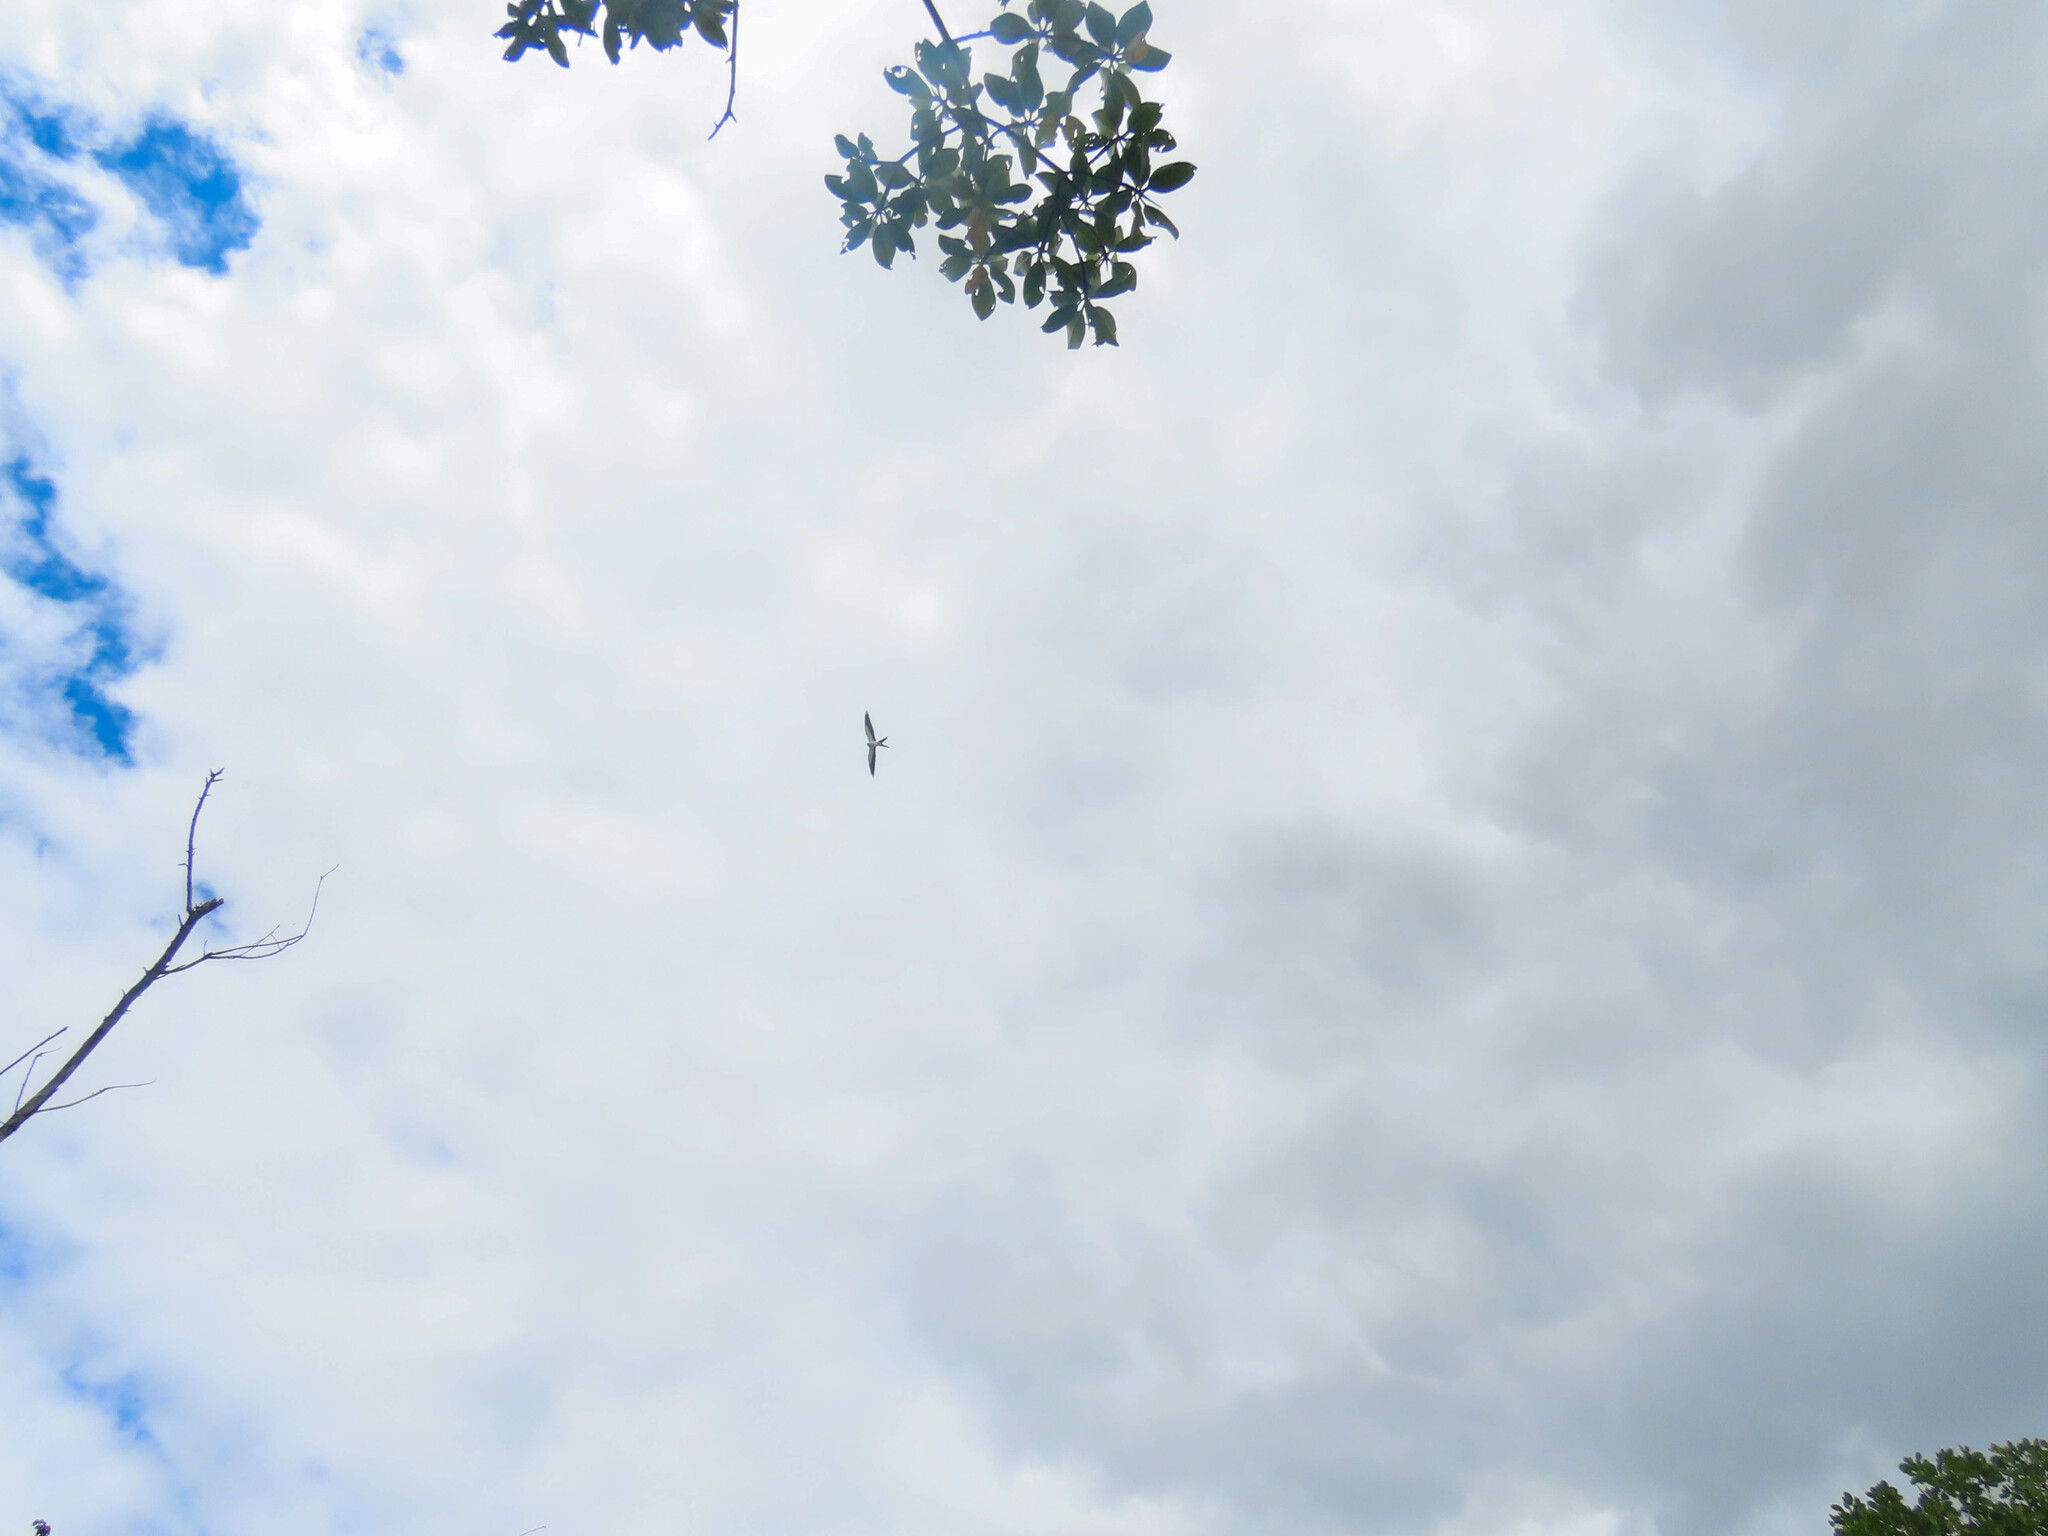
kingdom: Animalia
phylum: Chordata
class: Aves
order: Accipitriformes
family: Accipitridae
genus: Elanoides
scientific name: Elanoides forficatus
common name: Swallow-tailed kite
